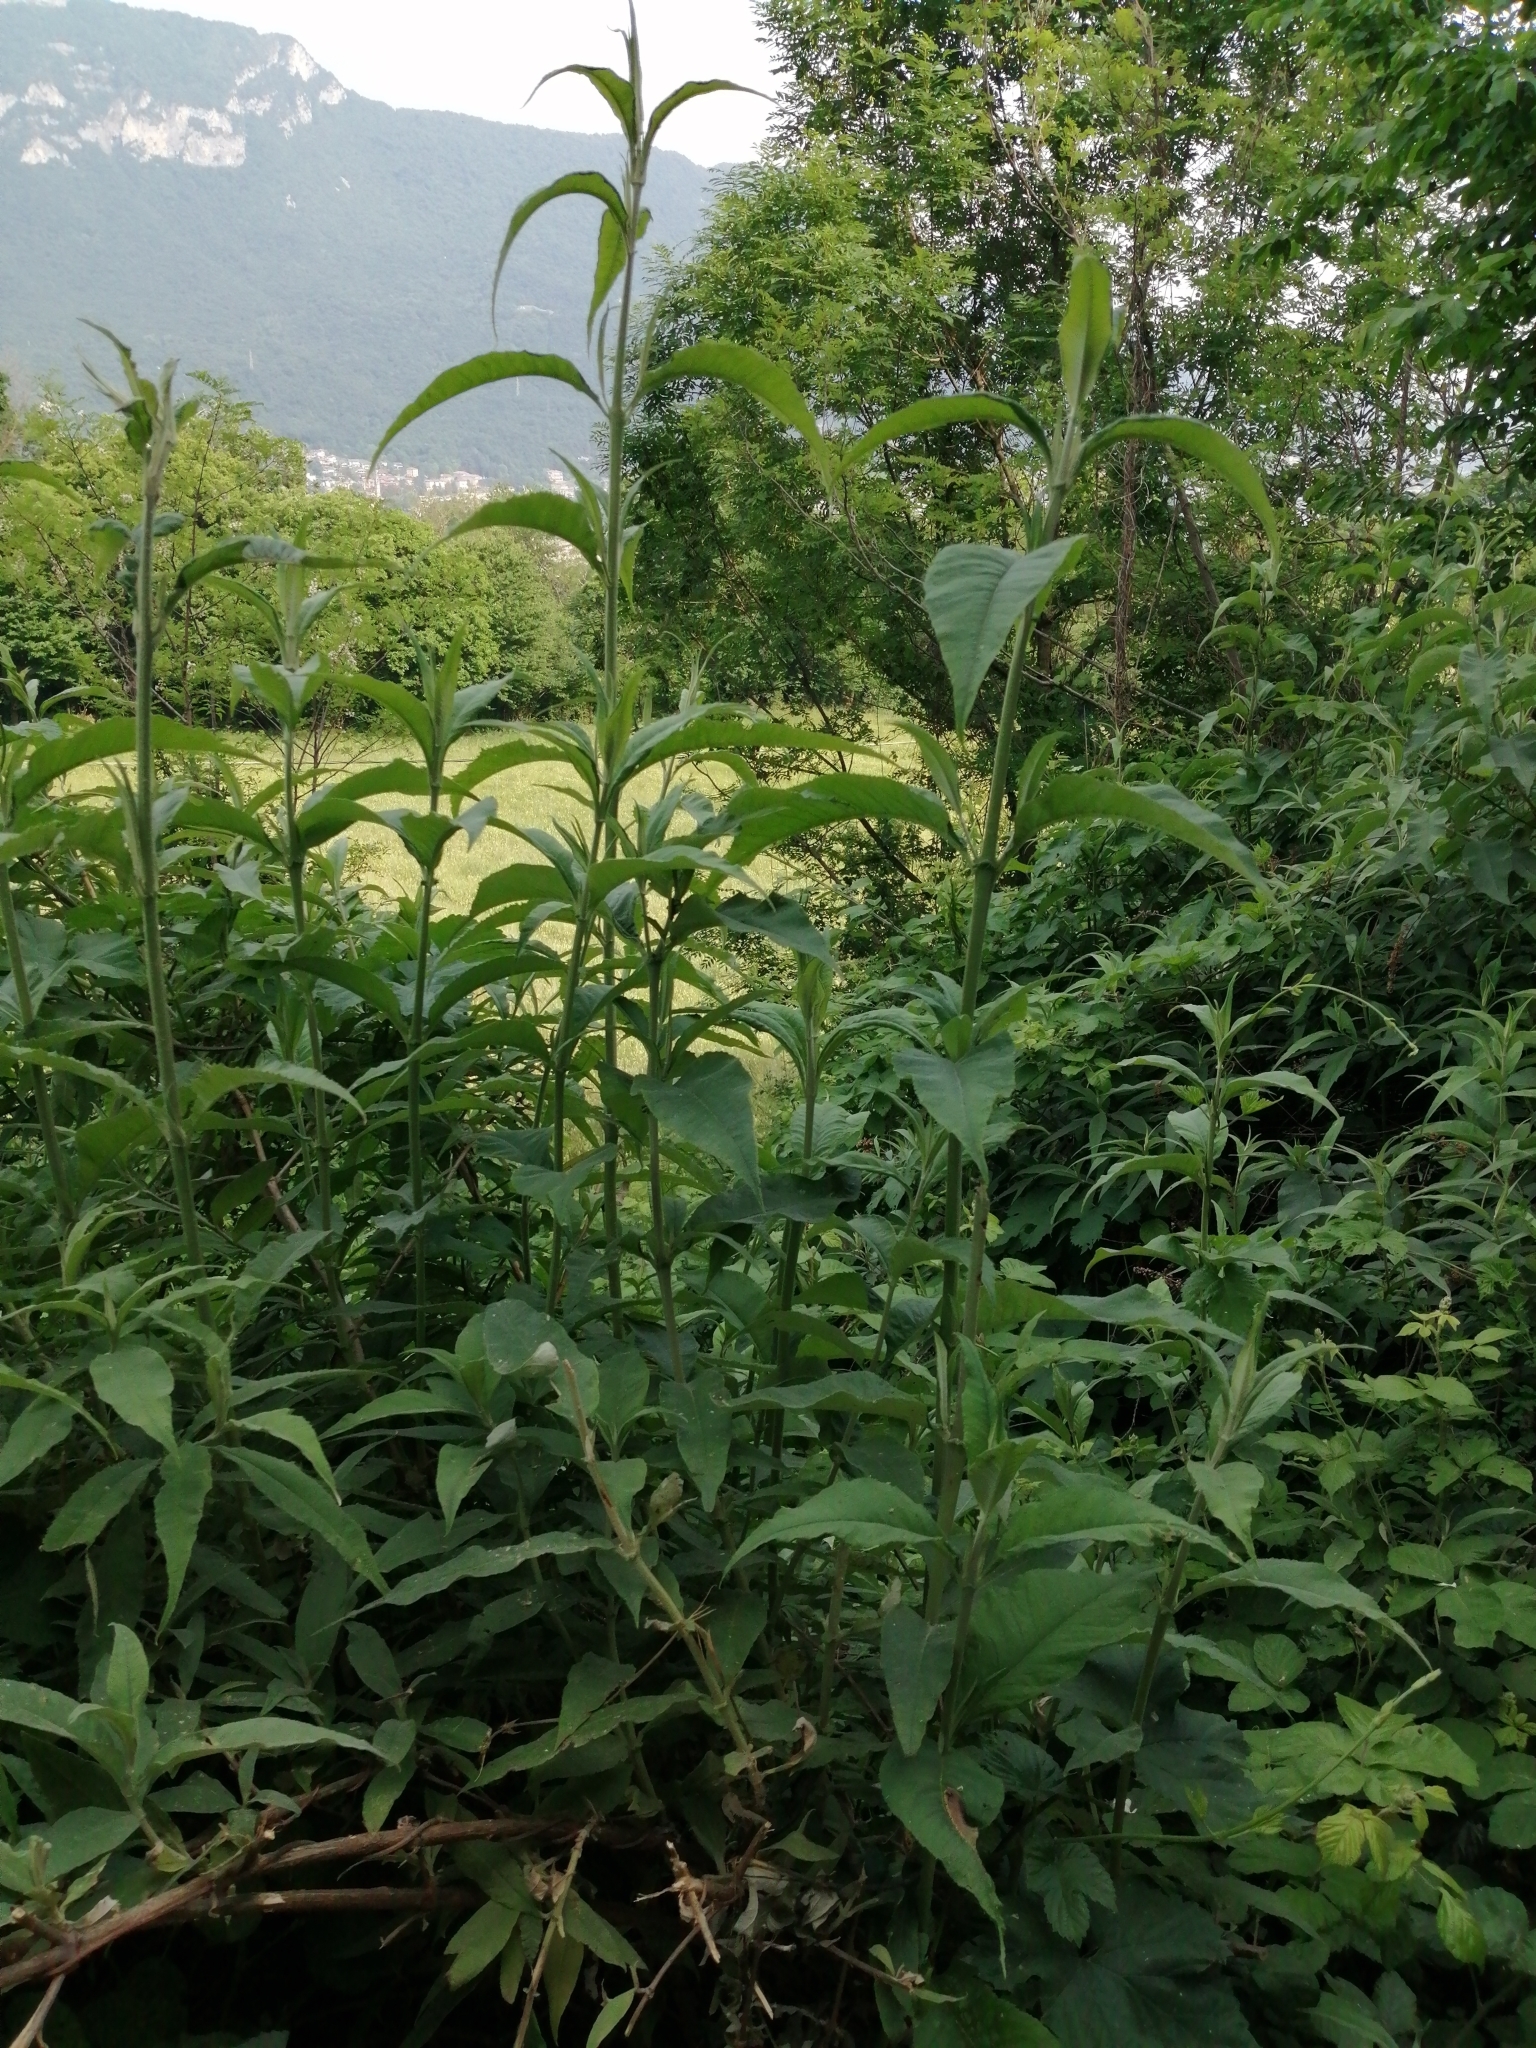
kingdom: Plantae
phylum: Tracheophyta
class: Magnoliopsida
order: Lamiales
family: Scrophulariaceae
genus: Buddleja
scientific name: Buddleja davidii
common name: Butterfly-bush
